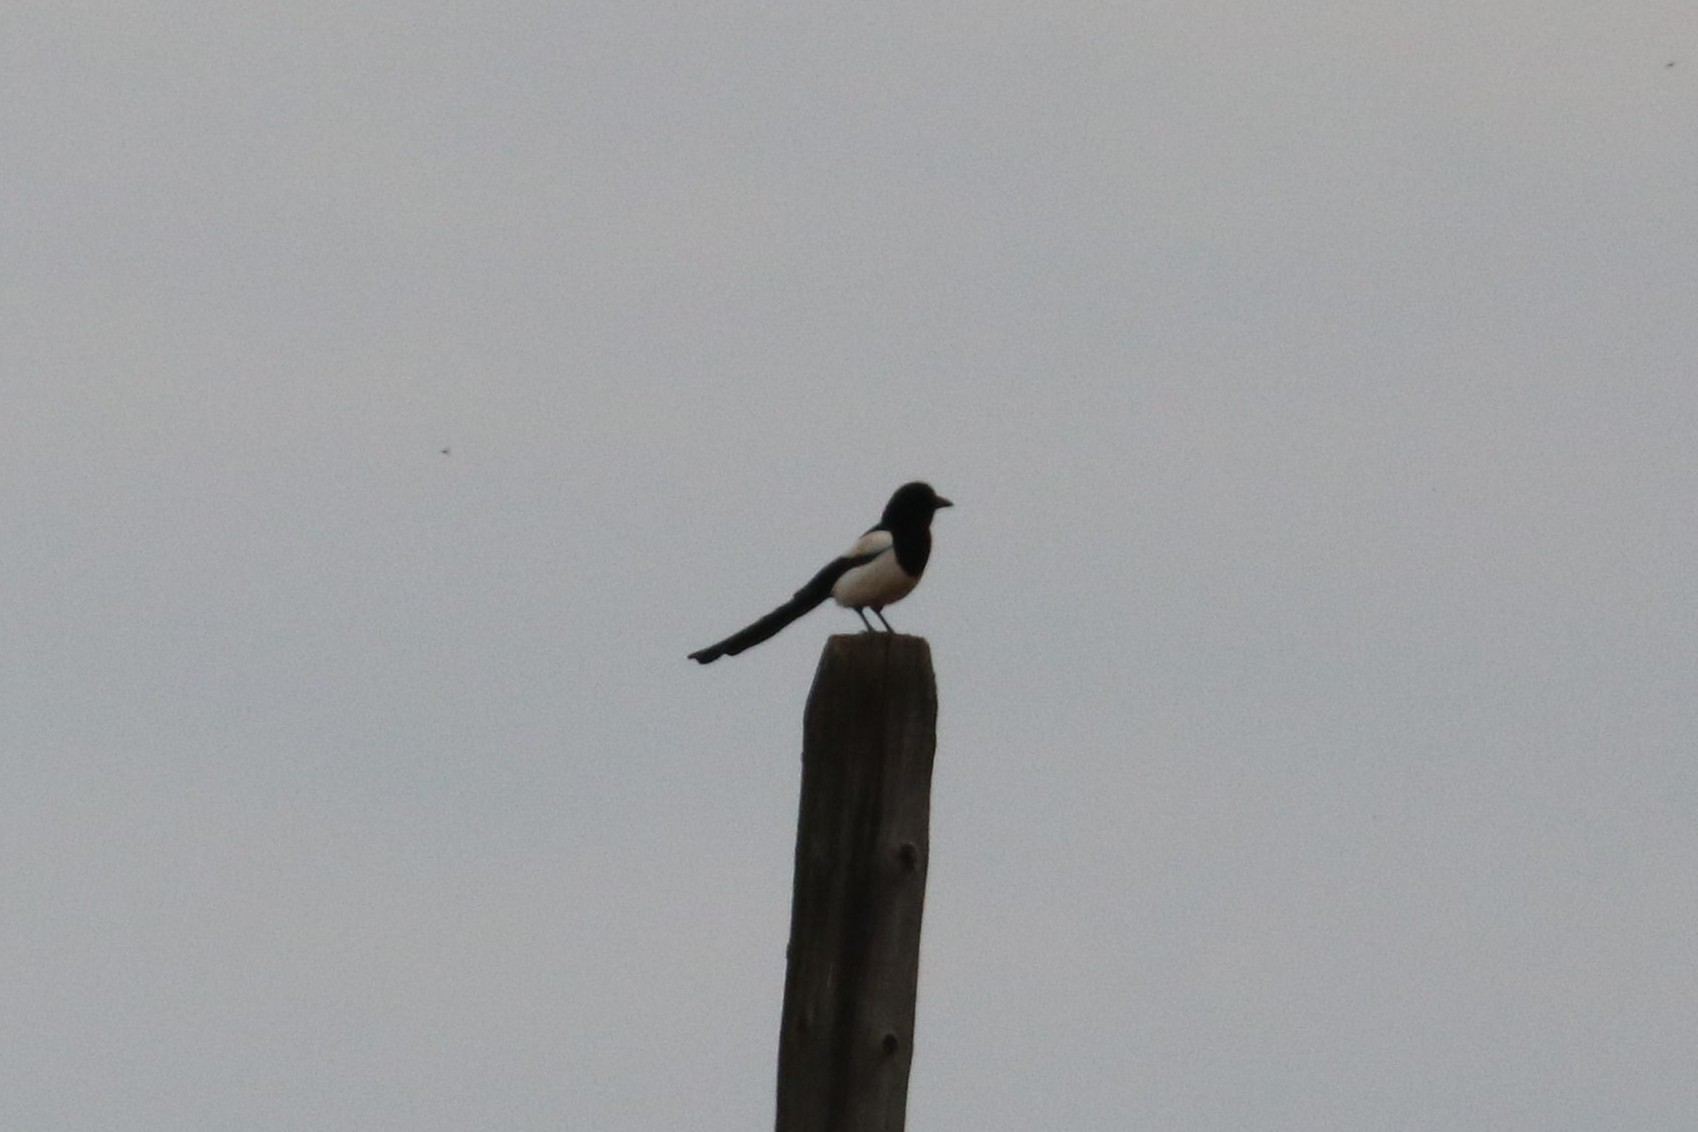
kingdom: Animalia
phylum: Chordata
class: Aves
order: Passeriformes
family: Corvidae
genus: Pica
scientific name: Pica pica
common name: Eurasian magpie
